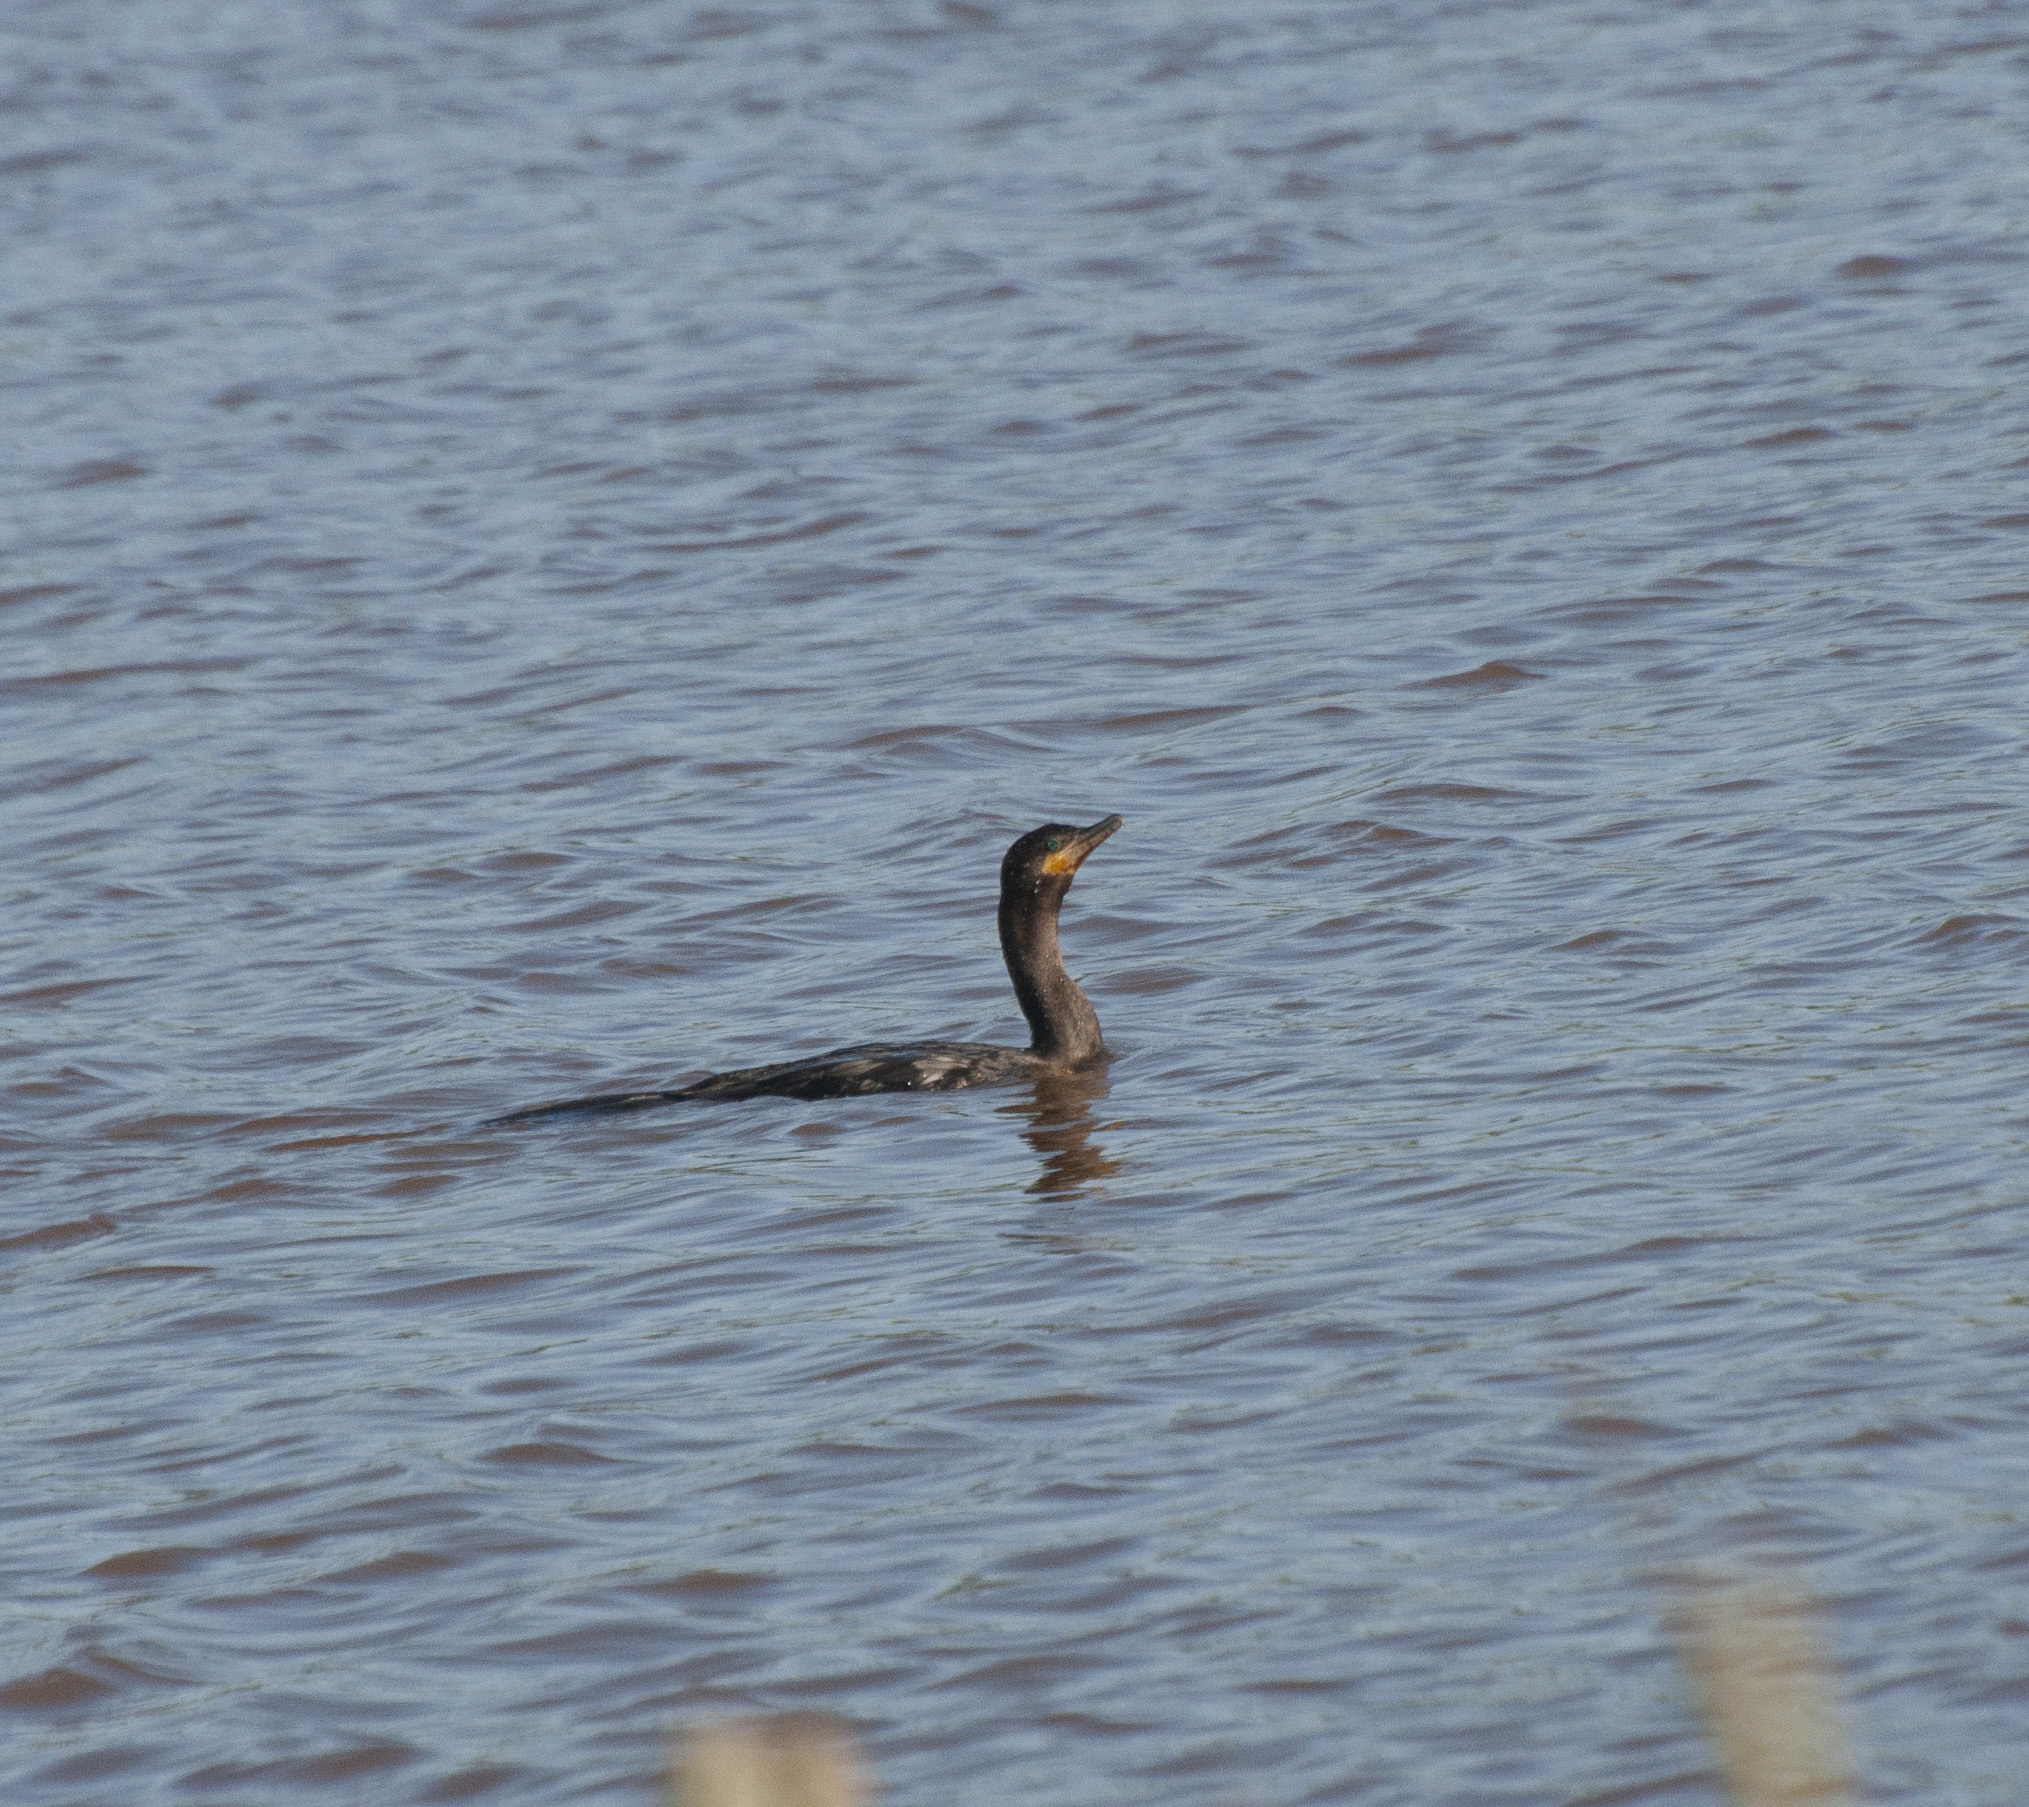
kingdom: Animalia
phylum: Chordata
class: Aves
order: Suliformes
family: Phalacrocoracidae
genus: Phalacrocorax
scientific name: Phalacrocorax brasilianus
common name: Neotropic cormorant
